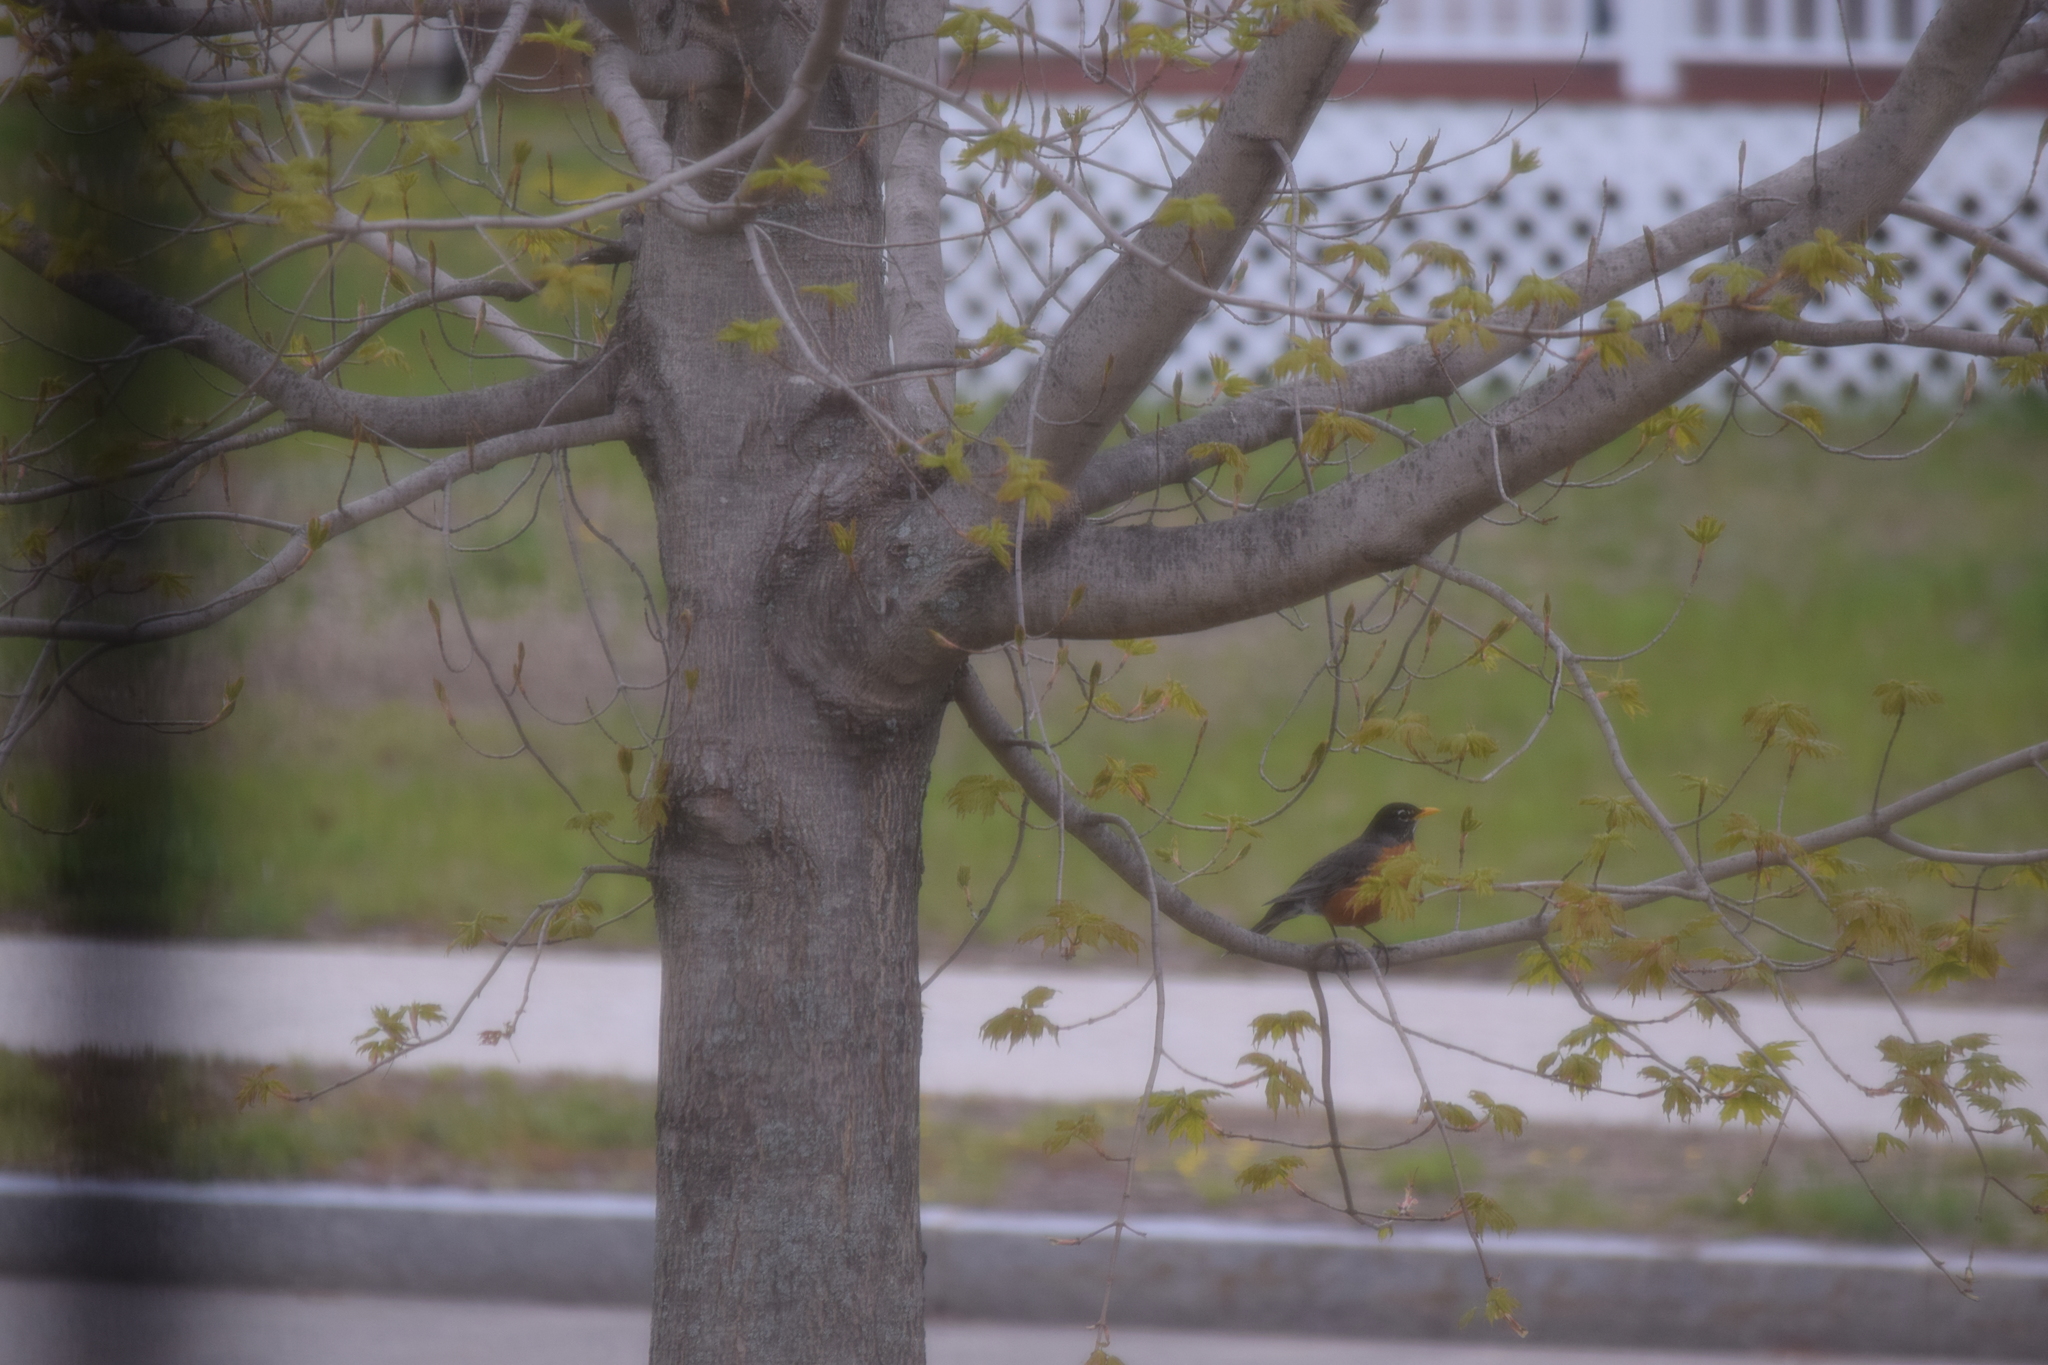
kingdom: Animalia
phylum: Chordata
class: Aves
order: Passeriformes
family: Turdidae
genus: Turdus
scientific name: Turdus migratorius
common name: American robin
